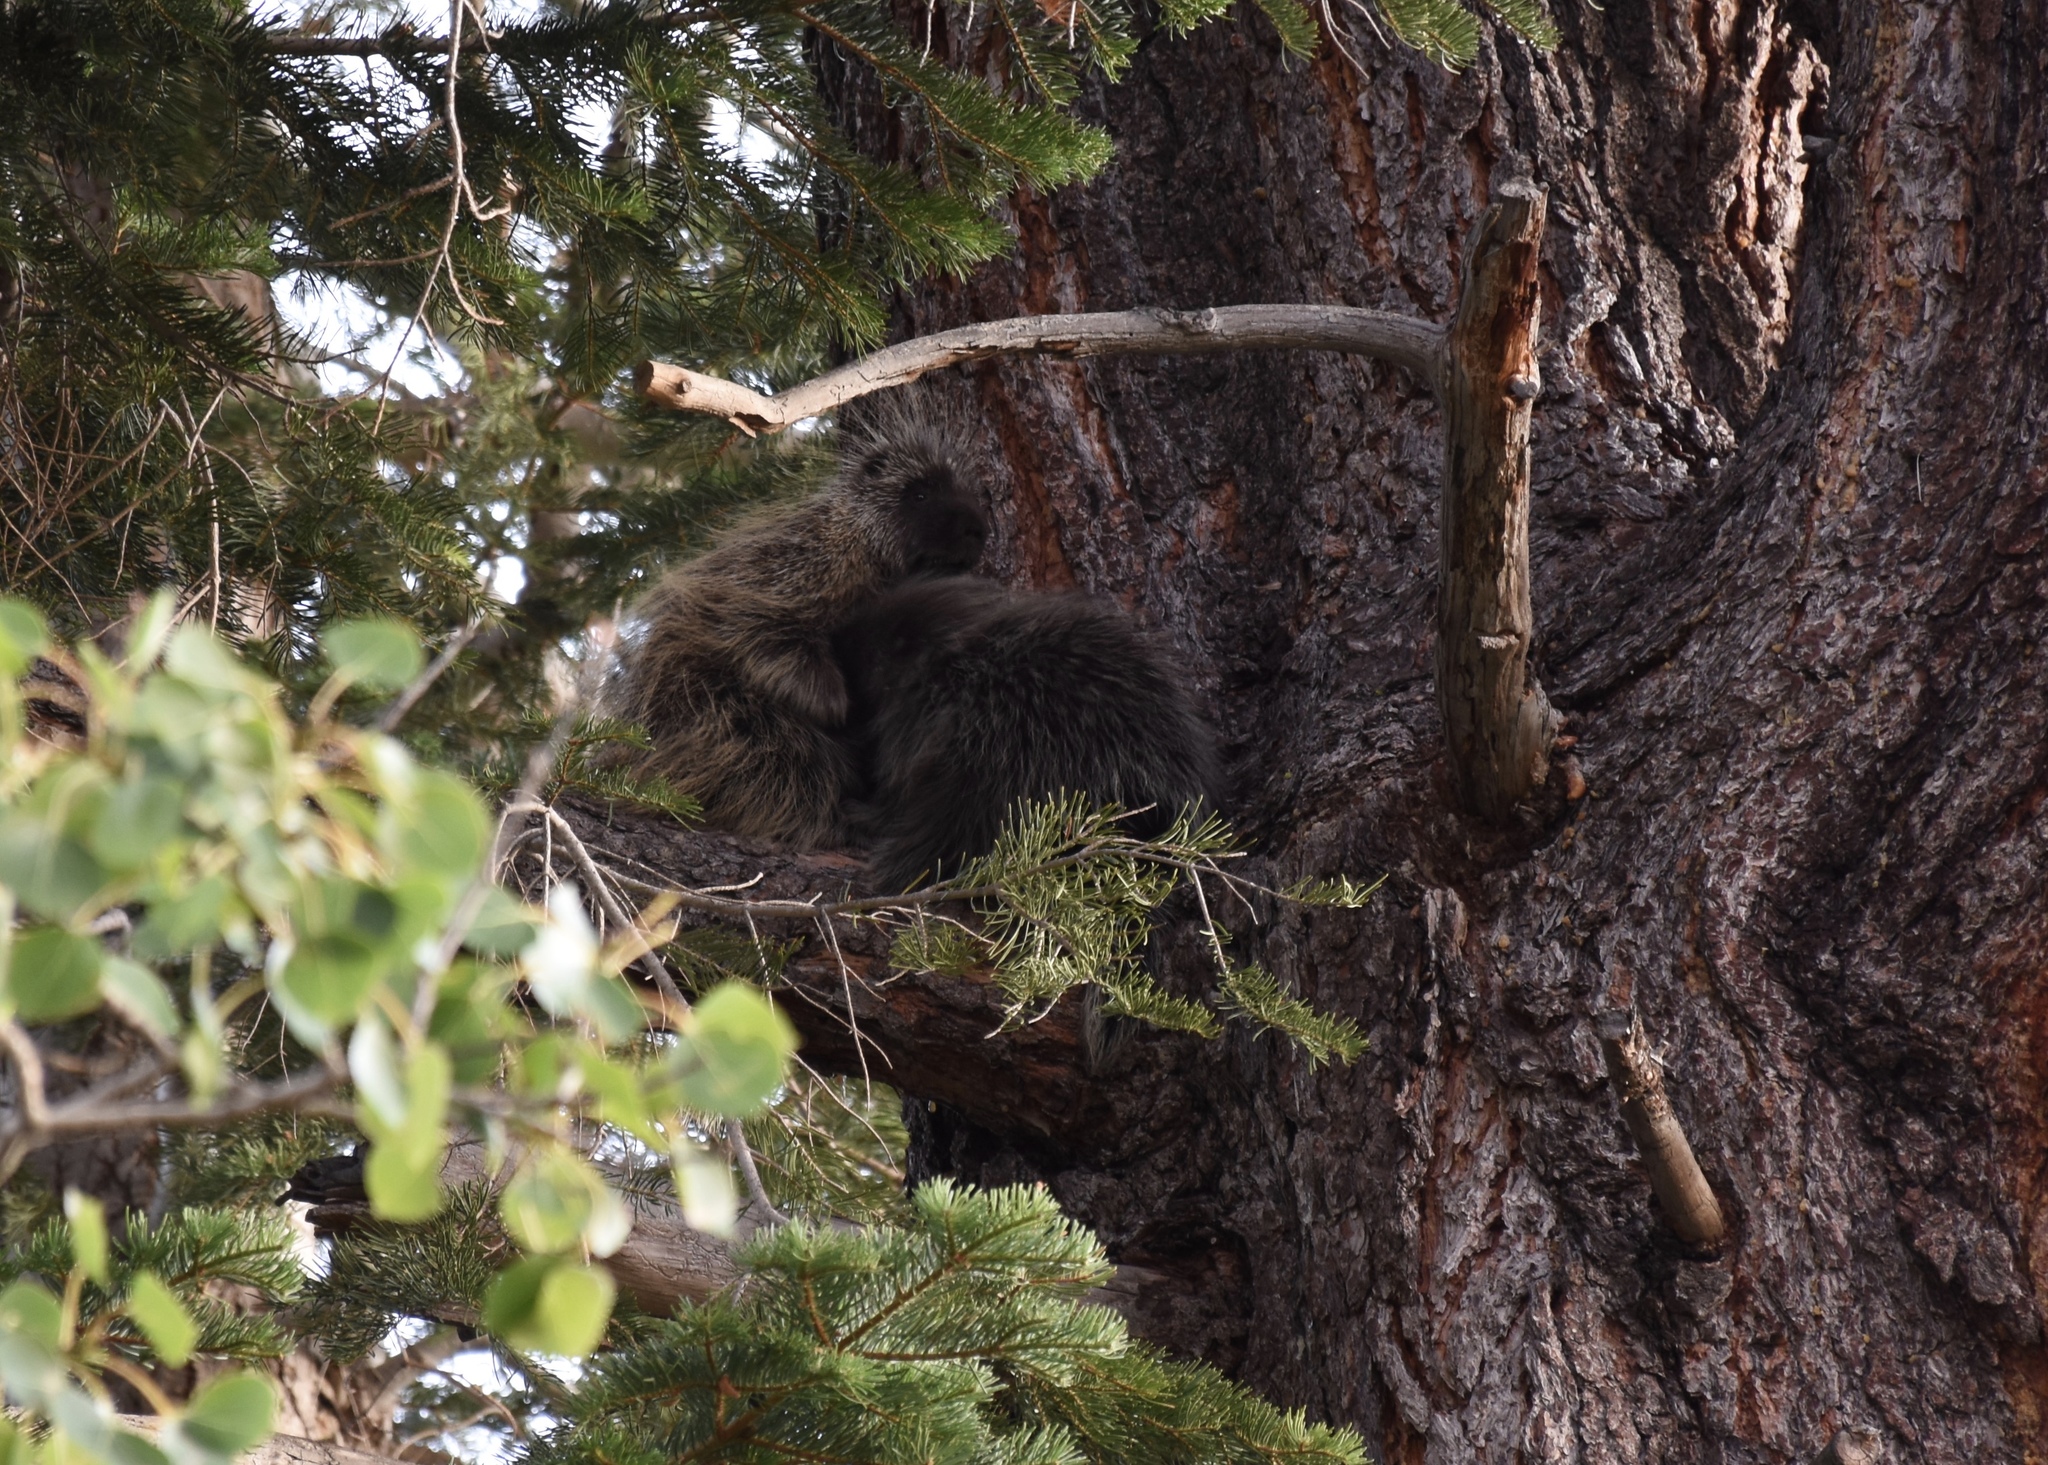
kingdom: Animalia
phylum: Chordata
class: Mammalia
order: Rodentia
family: Erethizontidae
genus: Erethizon
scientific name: Erethizon dorsatus
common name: North american porcupine
